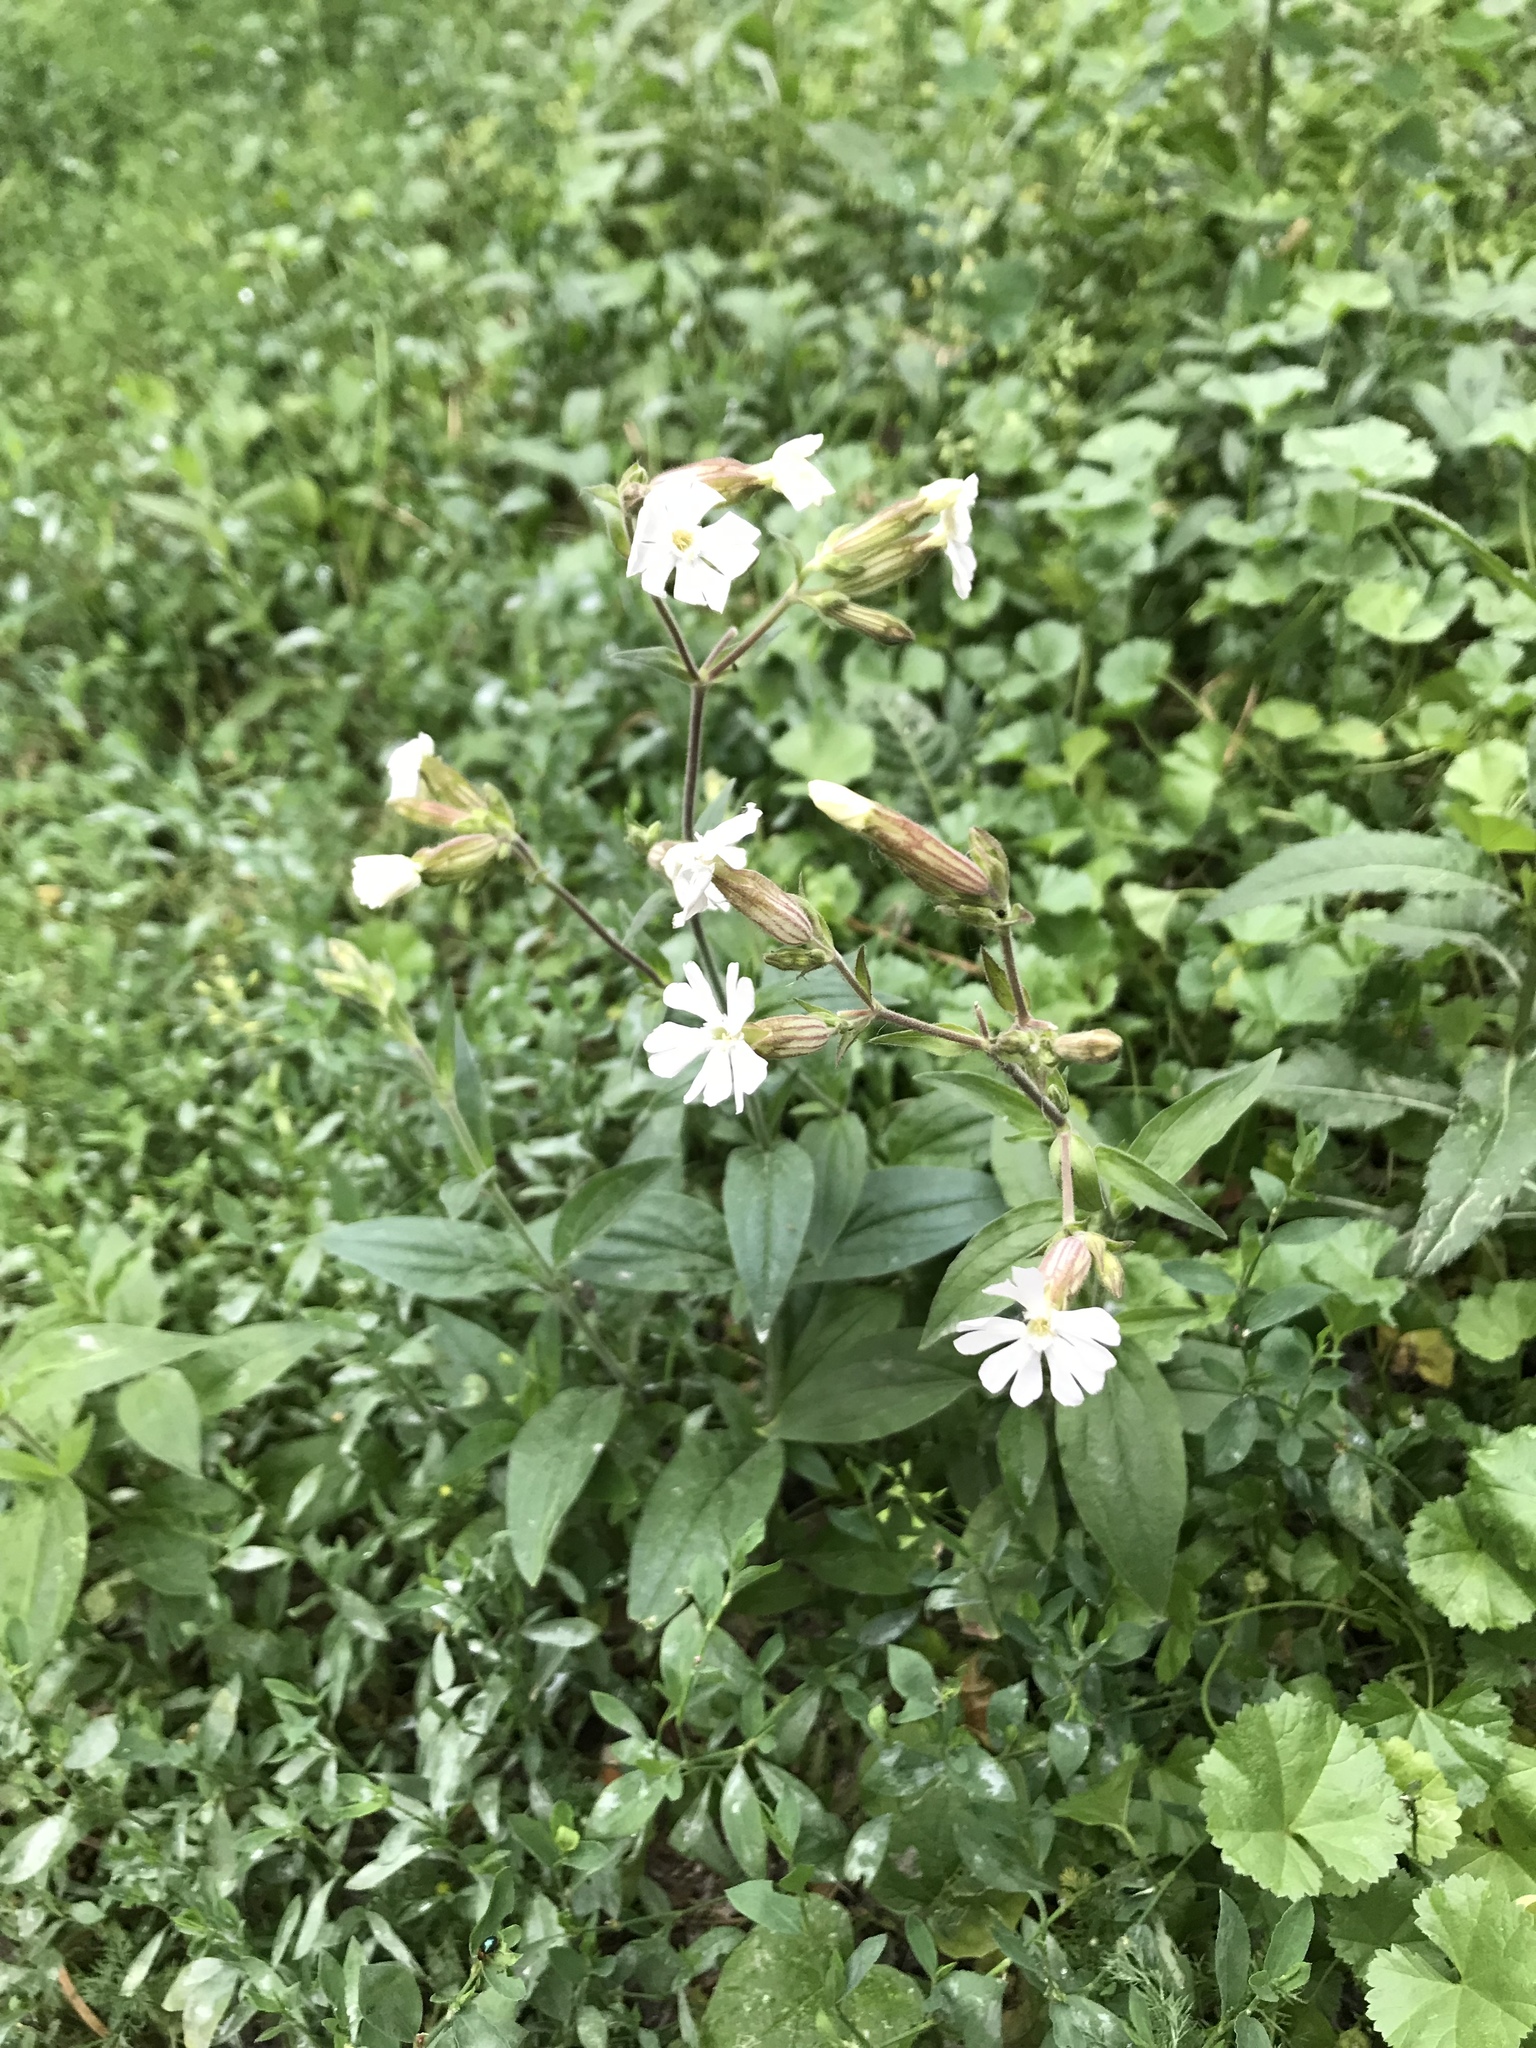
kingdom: Plantae
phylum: Tracheophyta
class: Magnoliopsida
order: Caryophyllales
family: Caryophyllaceae
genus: Silene
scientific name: Silene latifolia
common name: White campion
